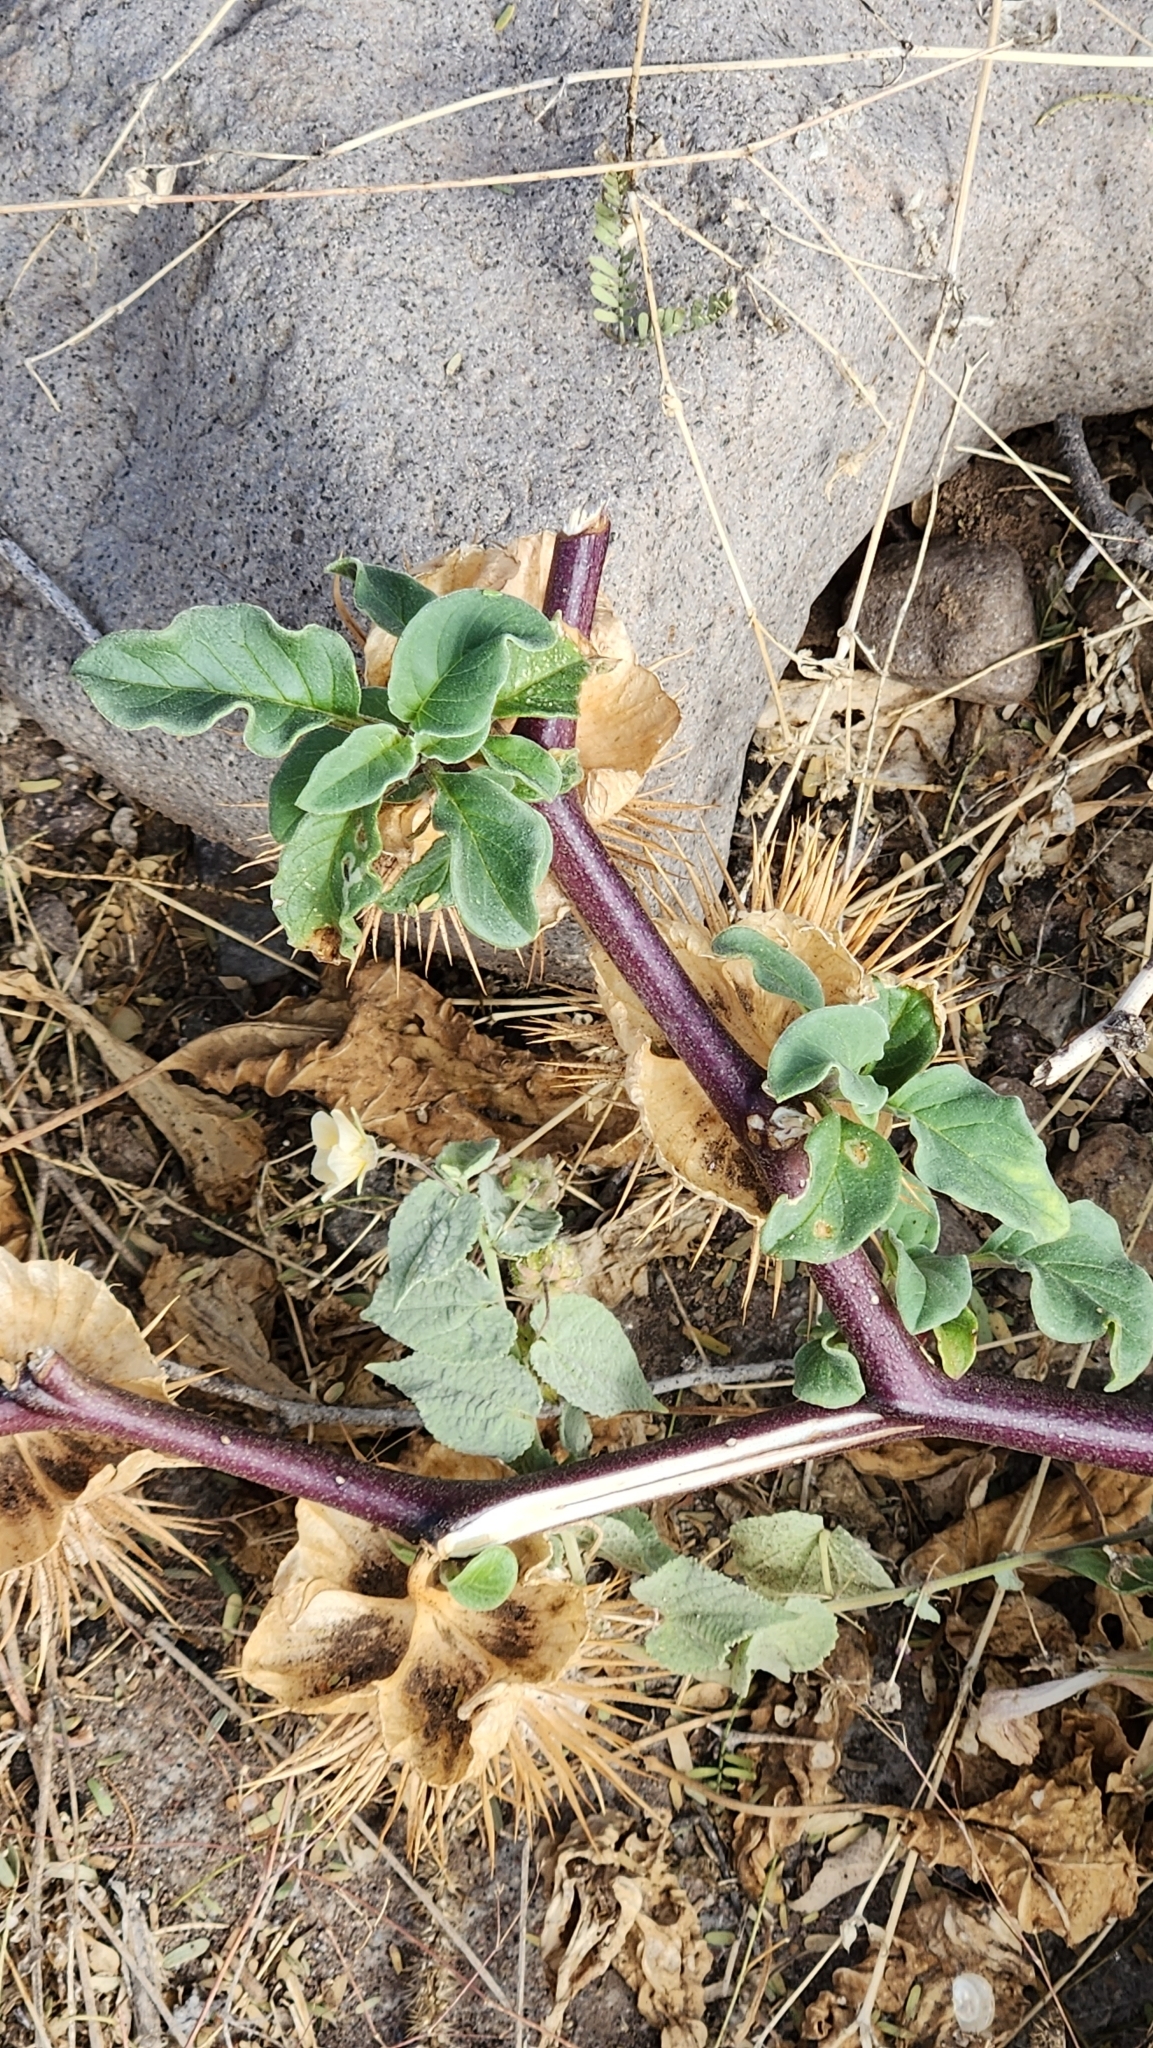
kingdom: Plantae
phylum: Tracheophyta
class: Magnoliopsida
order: Solanales
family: Solanaceae
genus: Datura
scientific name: Datura discolor
